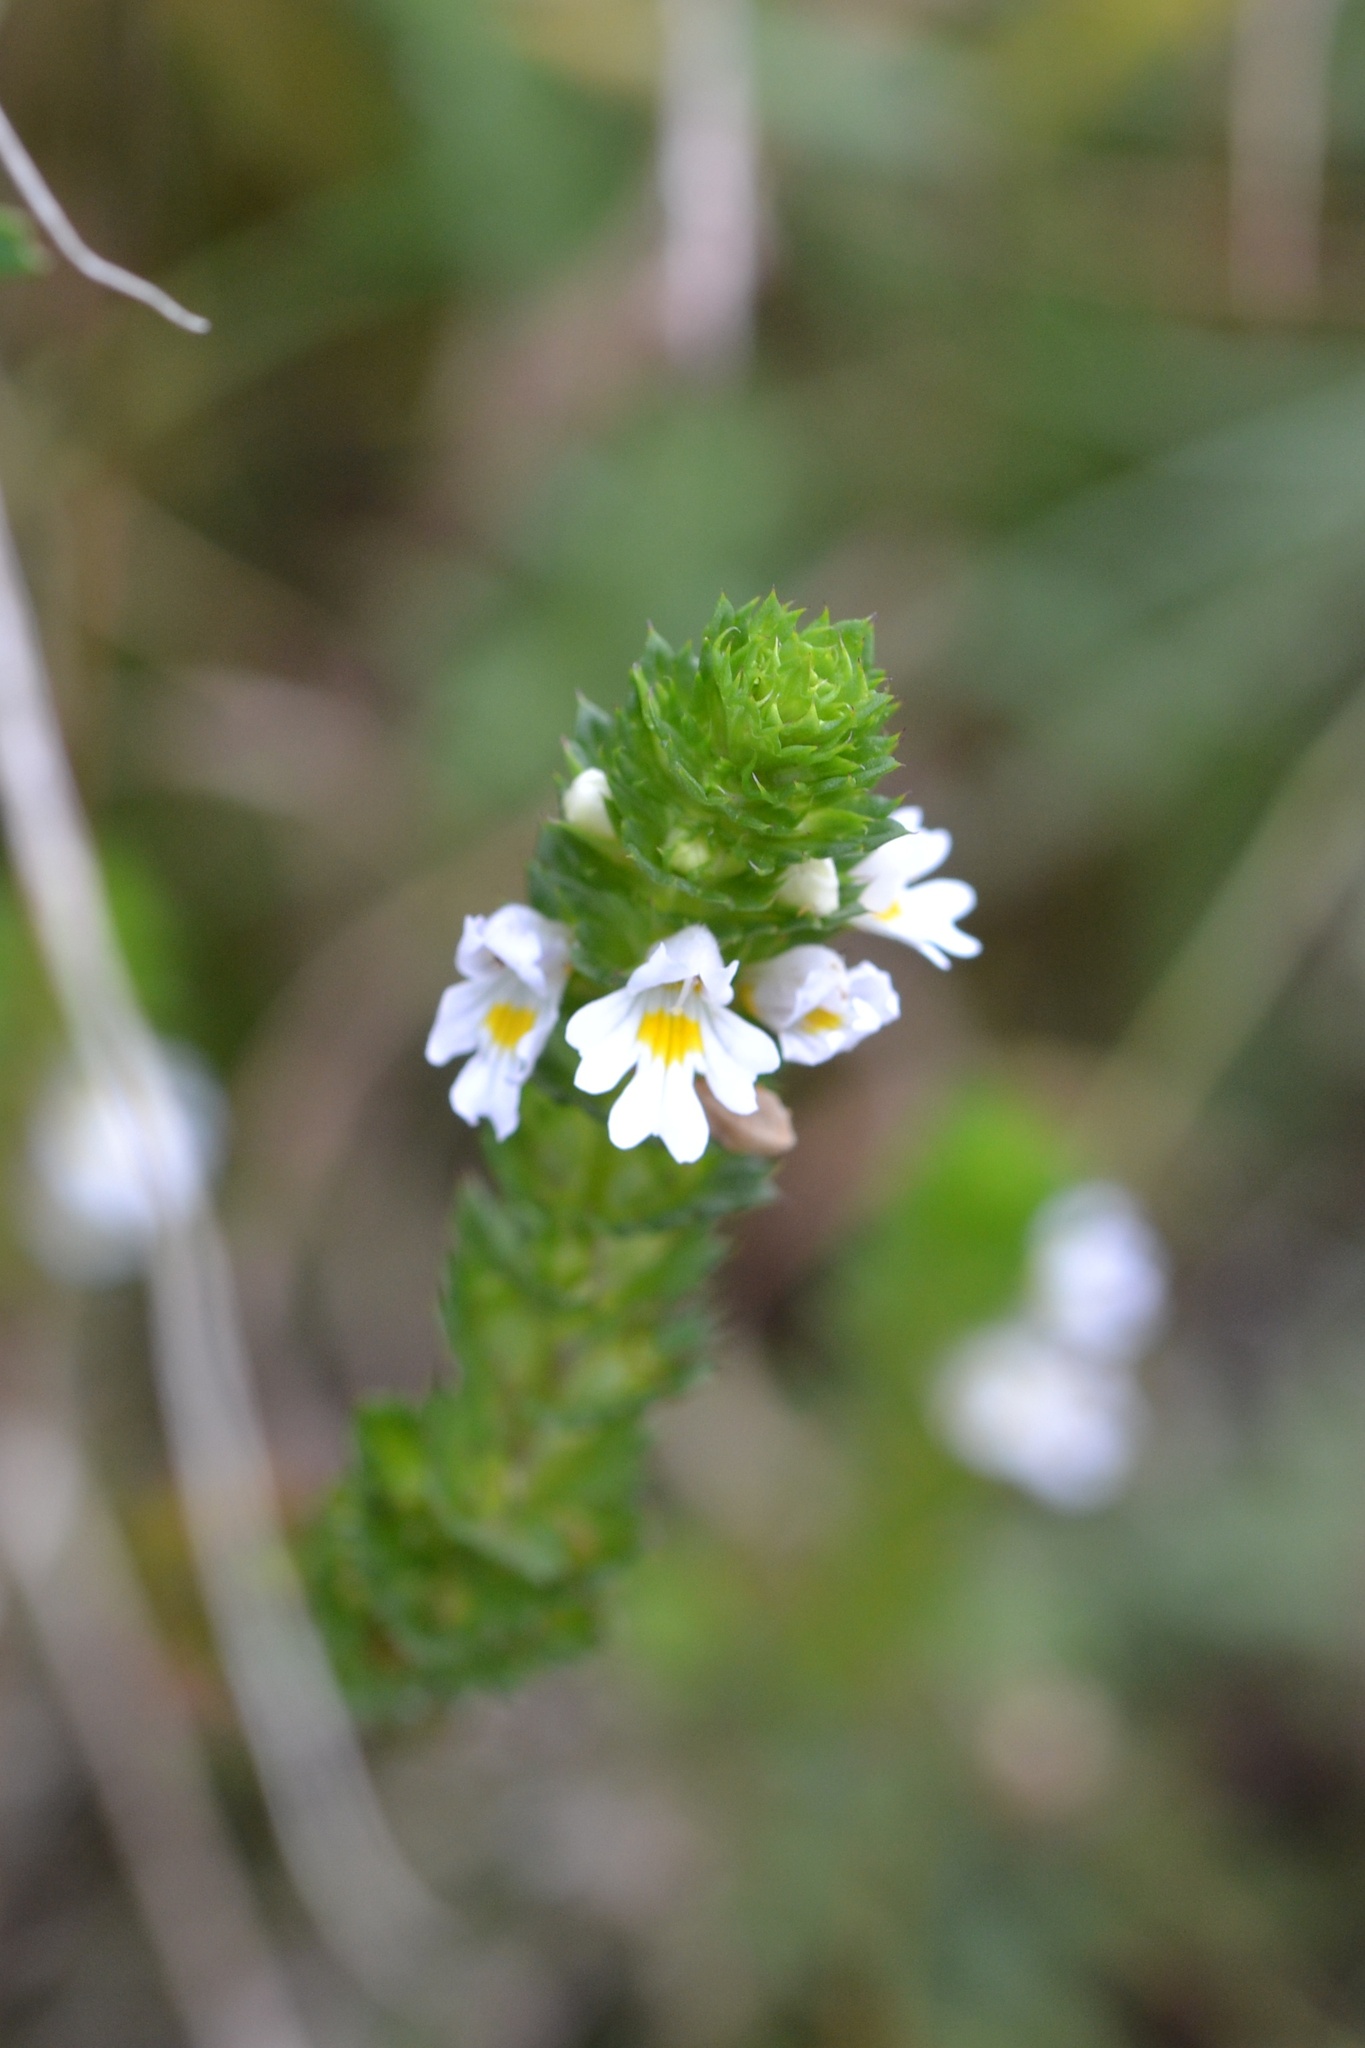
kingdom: Plantae
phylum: Tracheophyta
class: Magnoliopsida
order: Lamiales
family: Orobanchaceae
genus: Euphrasia
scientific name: Euphrasia stricta
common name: Drug eyebright
